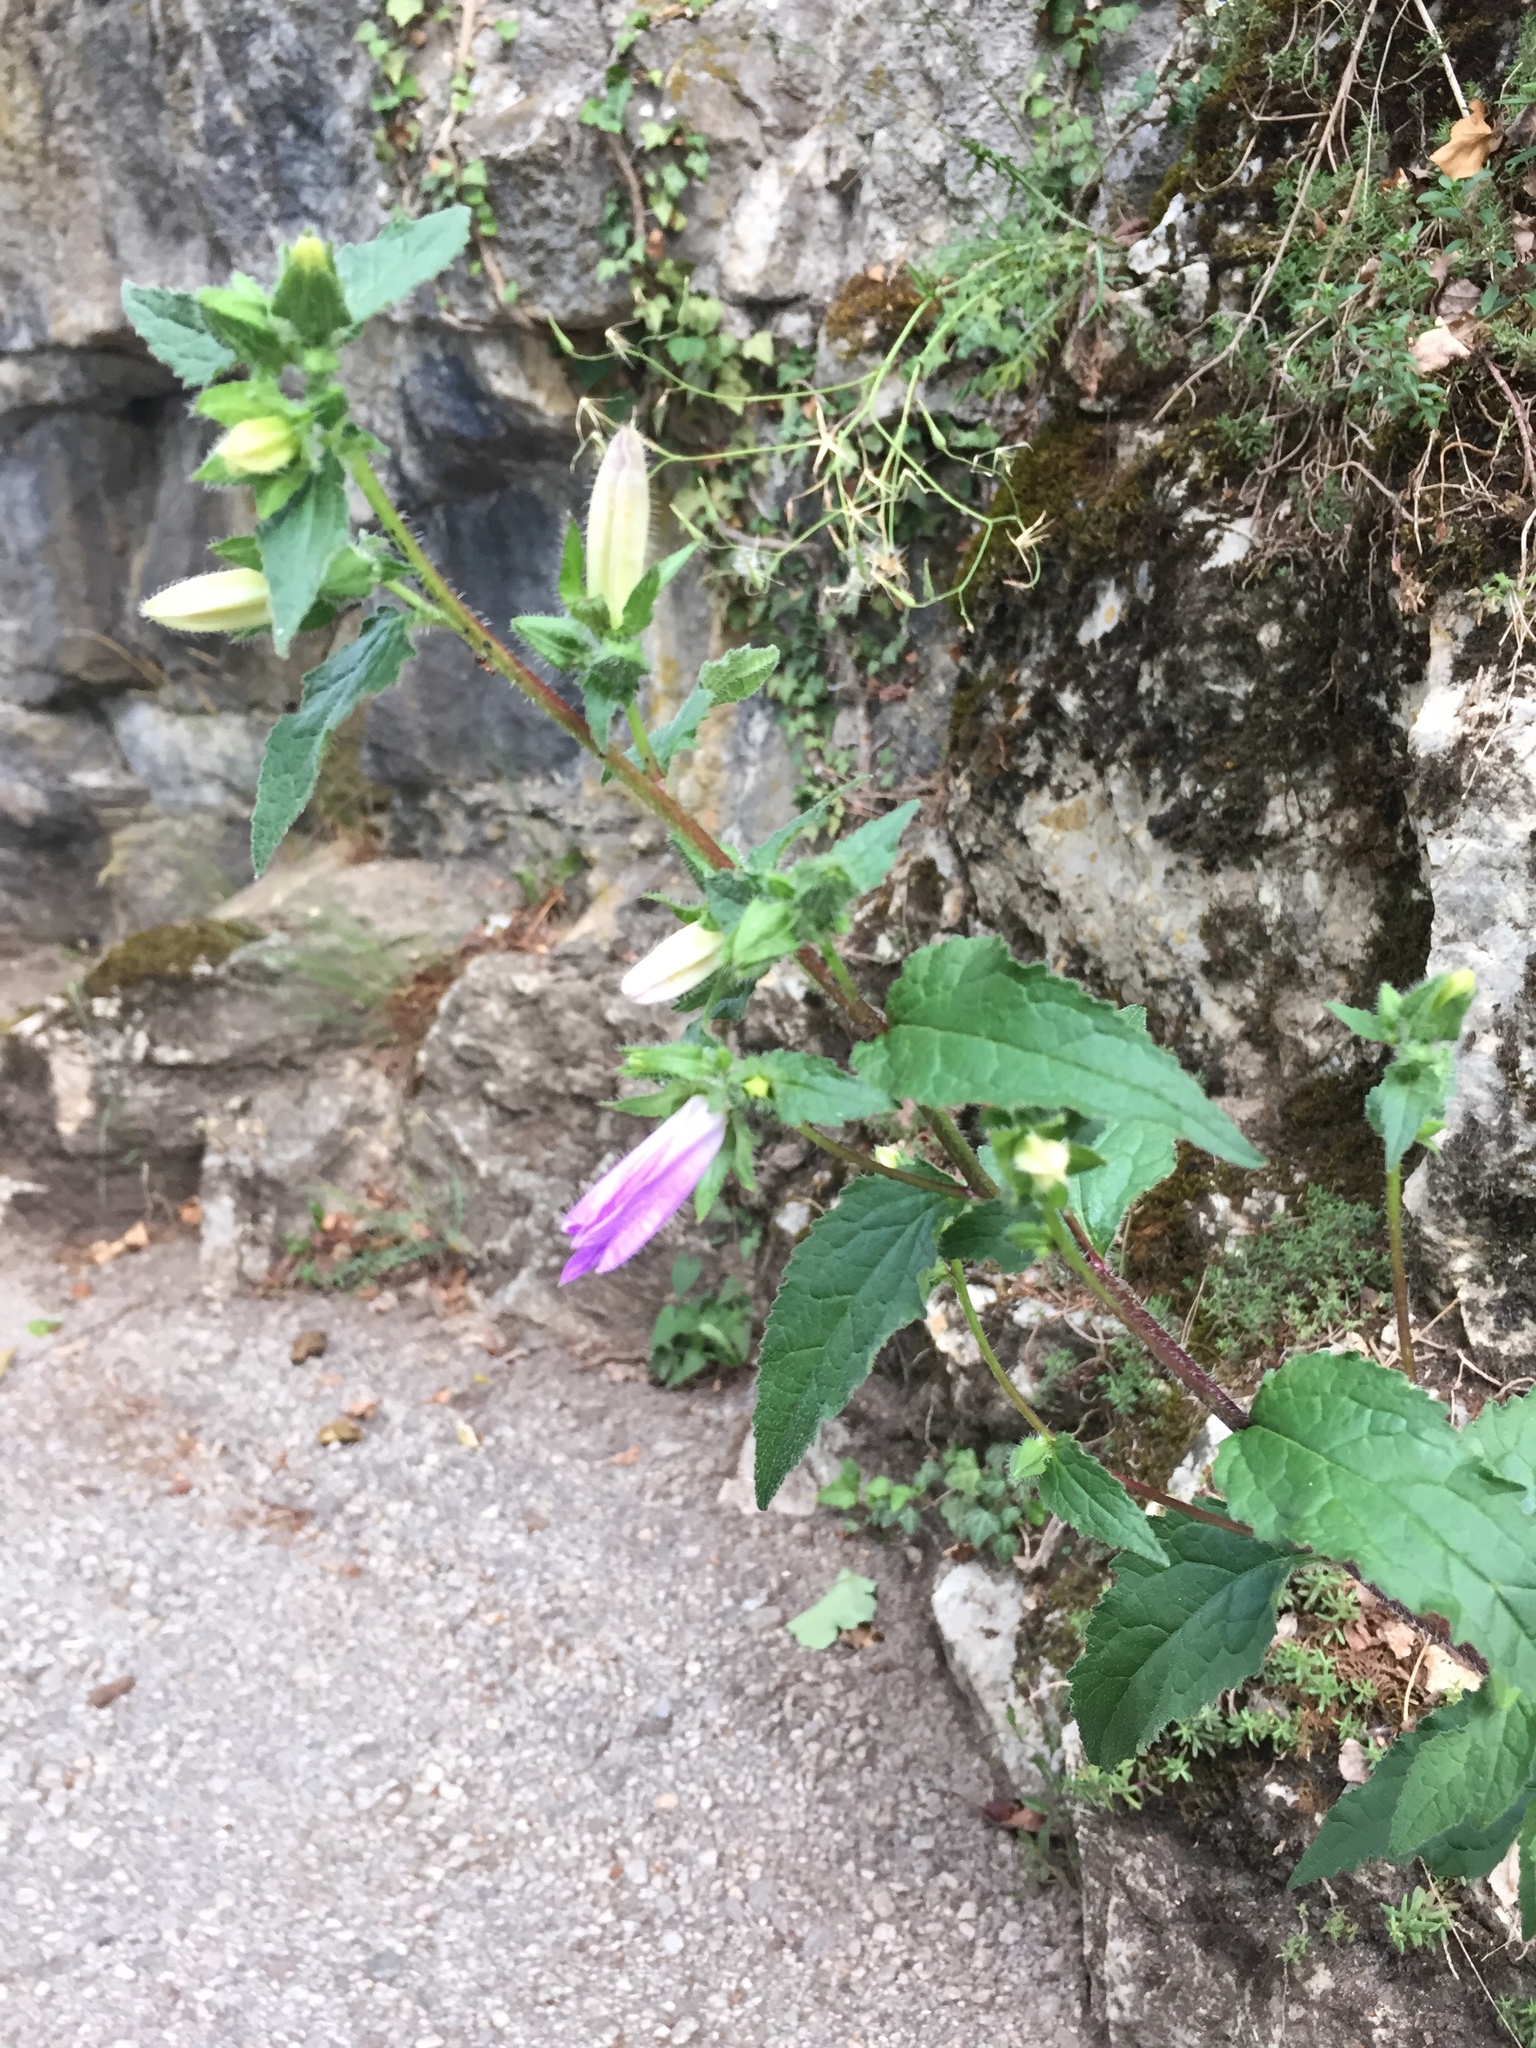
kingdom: Plantae
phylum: Tracheophyta
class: Magnoliopsida
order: Asterales
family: Campanulaceae
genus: Campanula
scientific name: Campanula trachelium
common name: Nettle-leaved bellflower
